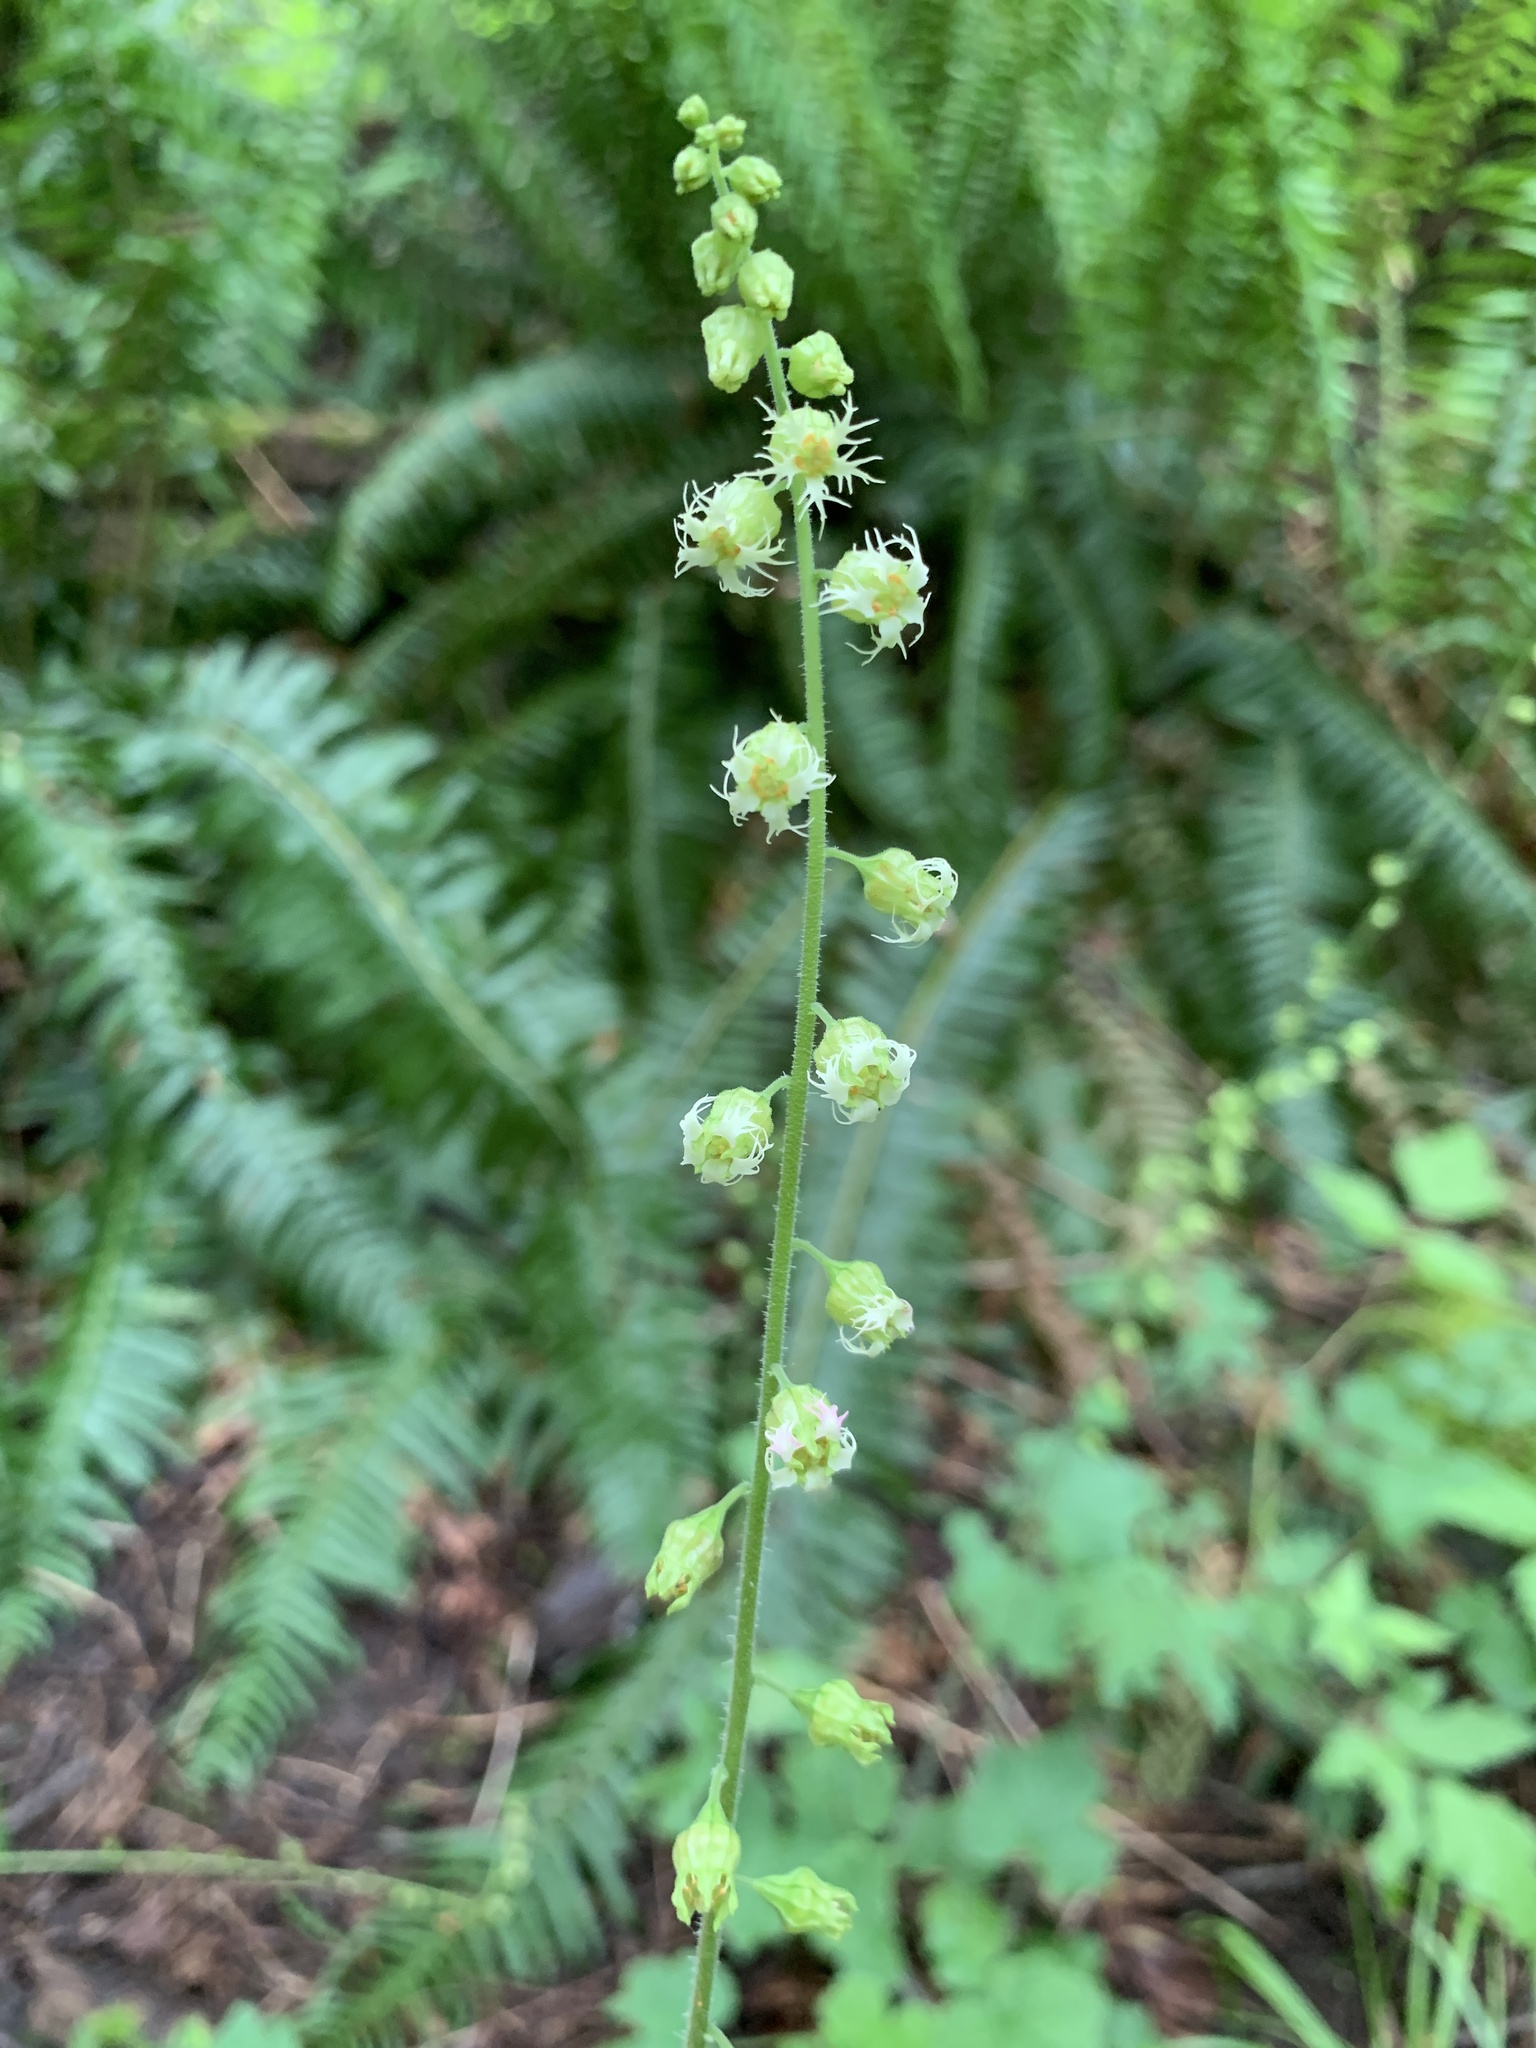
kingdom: Plantae
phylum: Tracheophyta
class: Magnoliopsida
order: Saxifragales
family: Saxifragaceae
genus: Tellima
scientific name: Tellima grandiflora
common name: Fringecups
